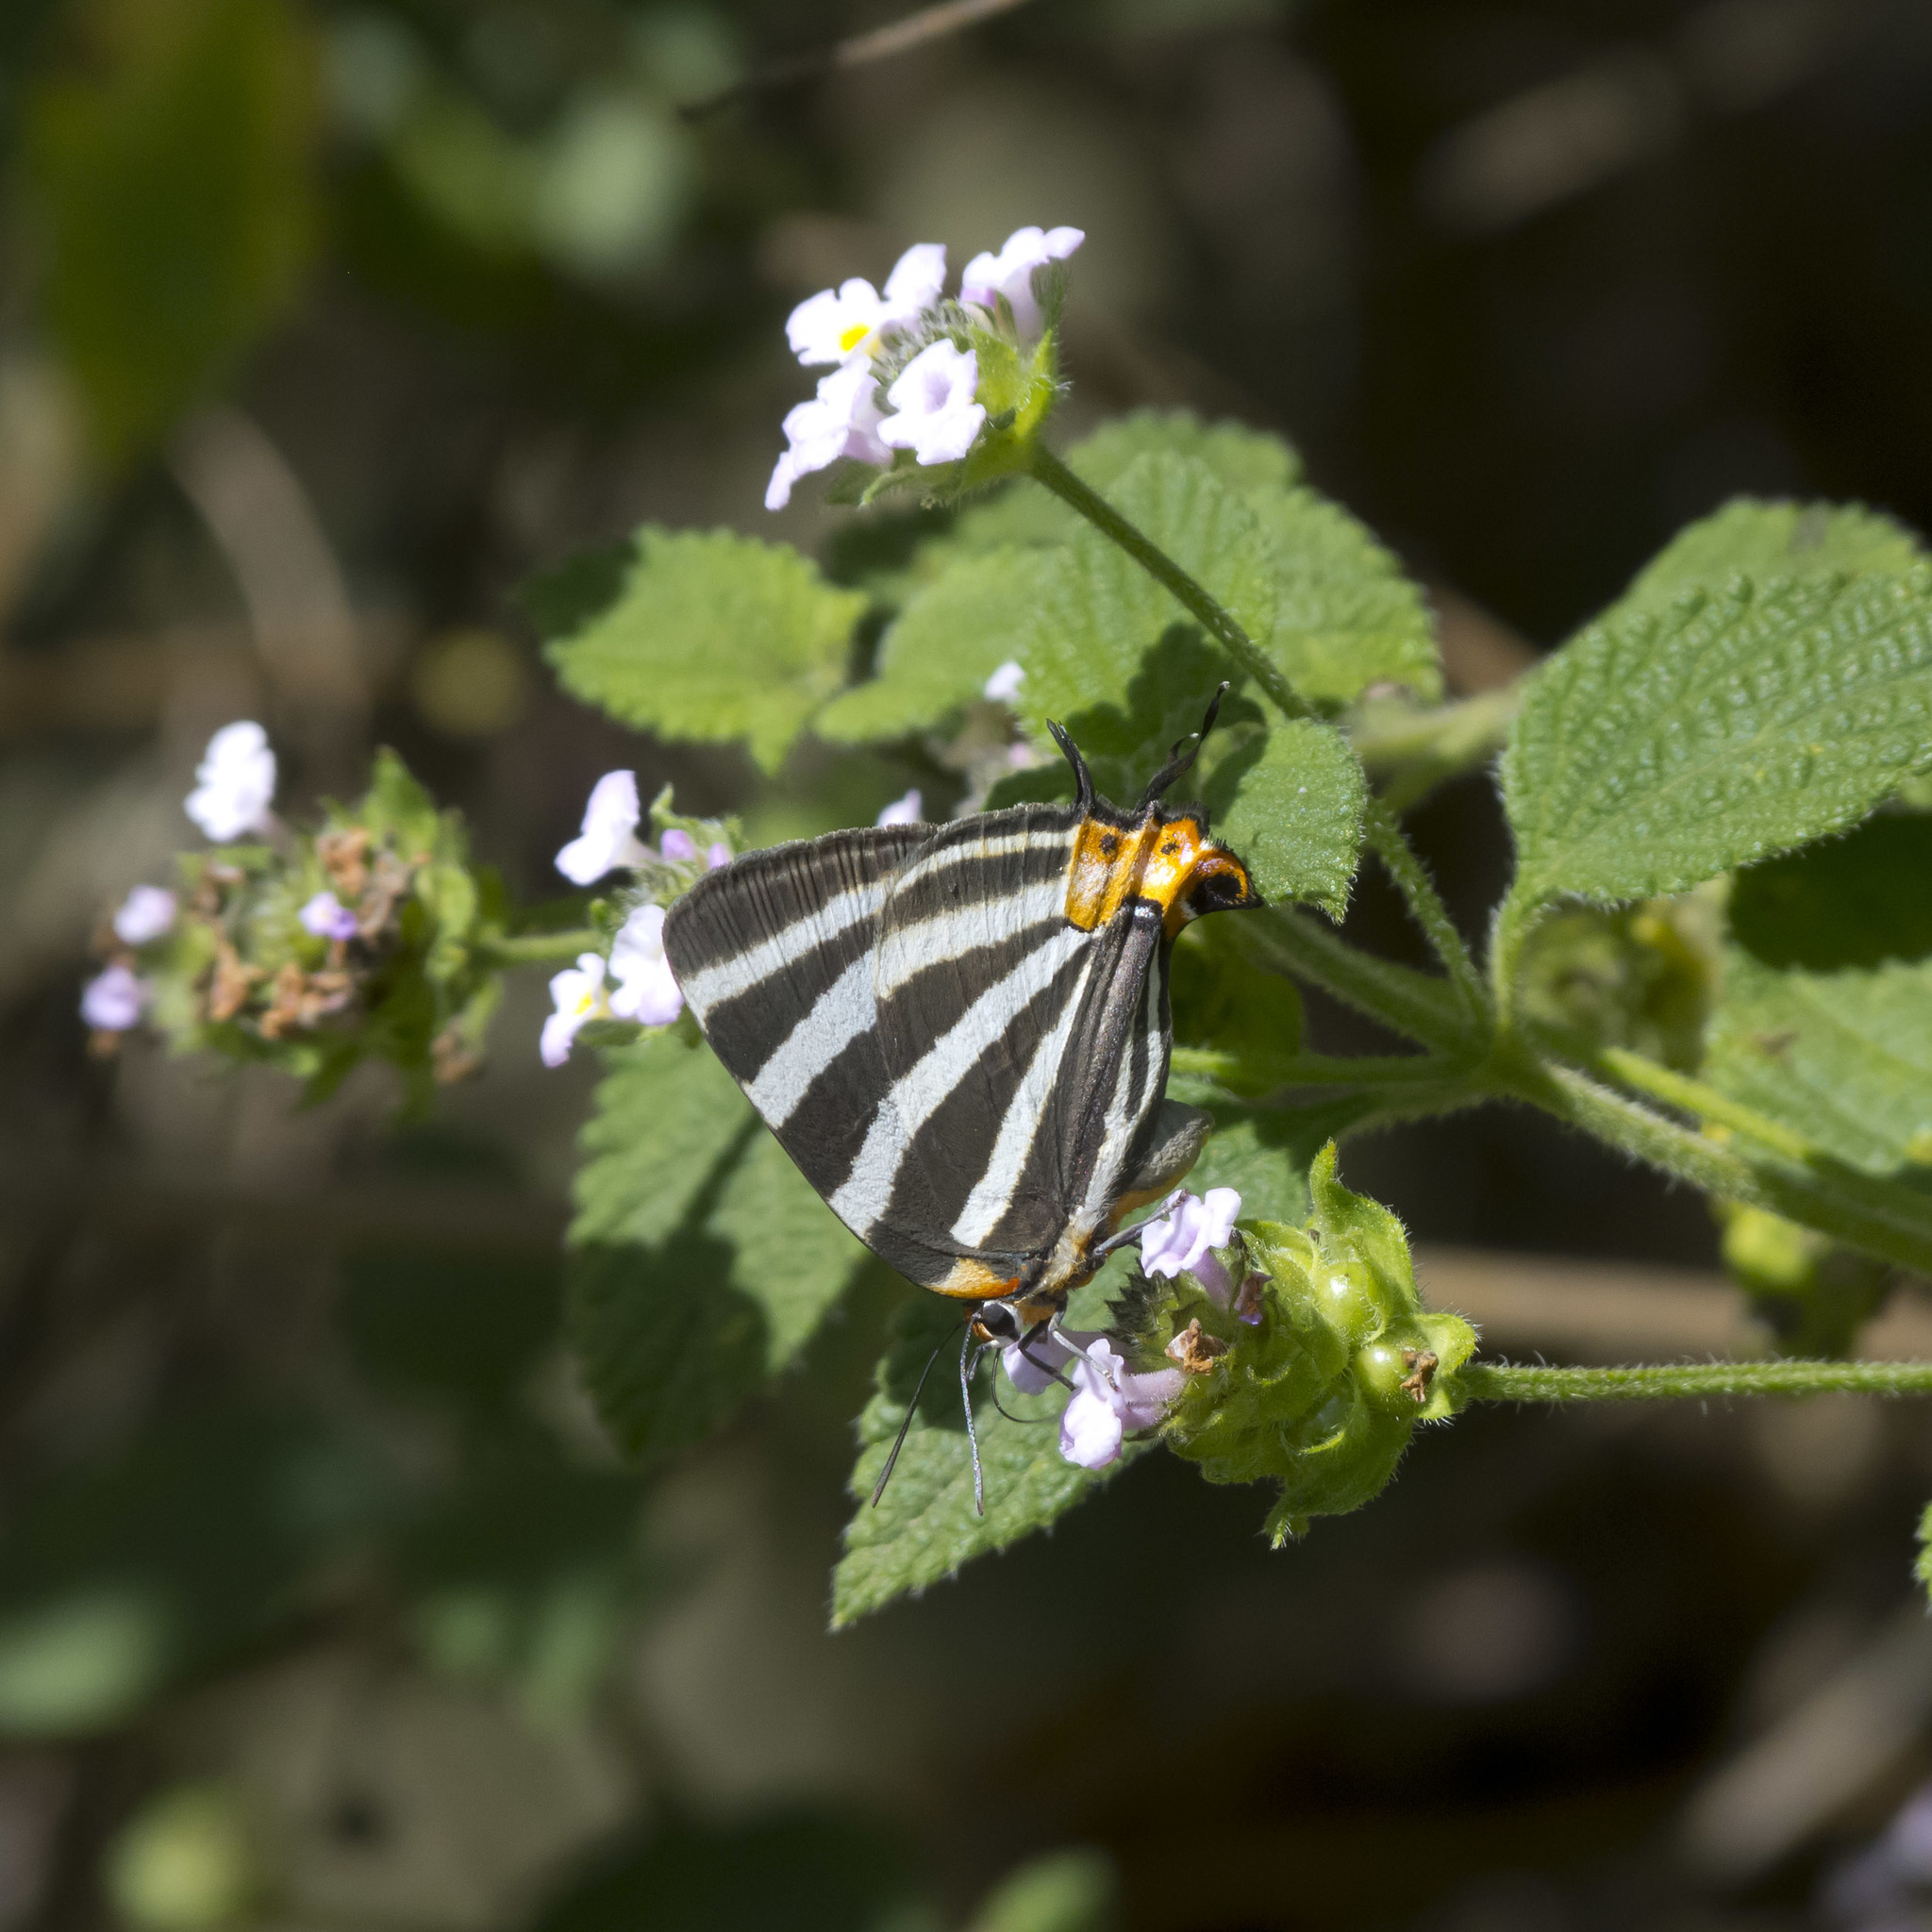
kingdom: Animalia
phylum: Arthropoda
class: Insecta
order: Lepidoptera
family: Lycaenidae
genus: Thecla
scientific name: Thecla bathildis
